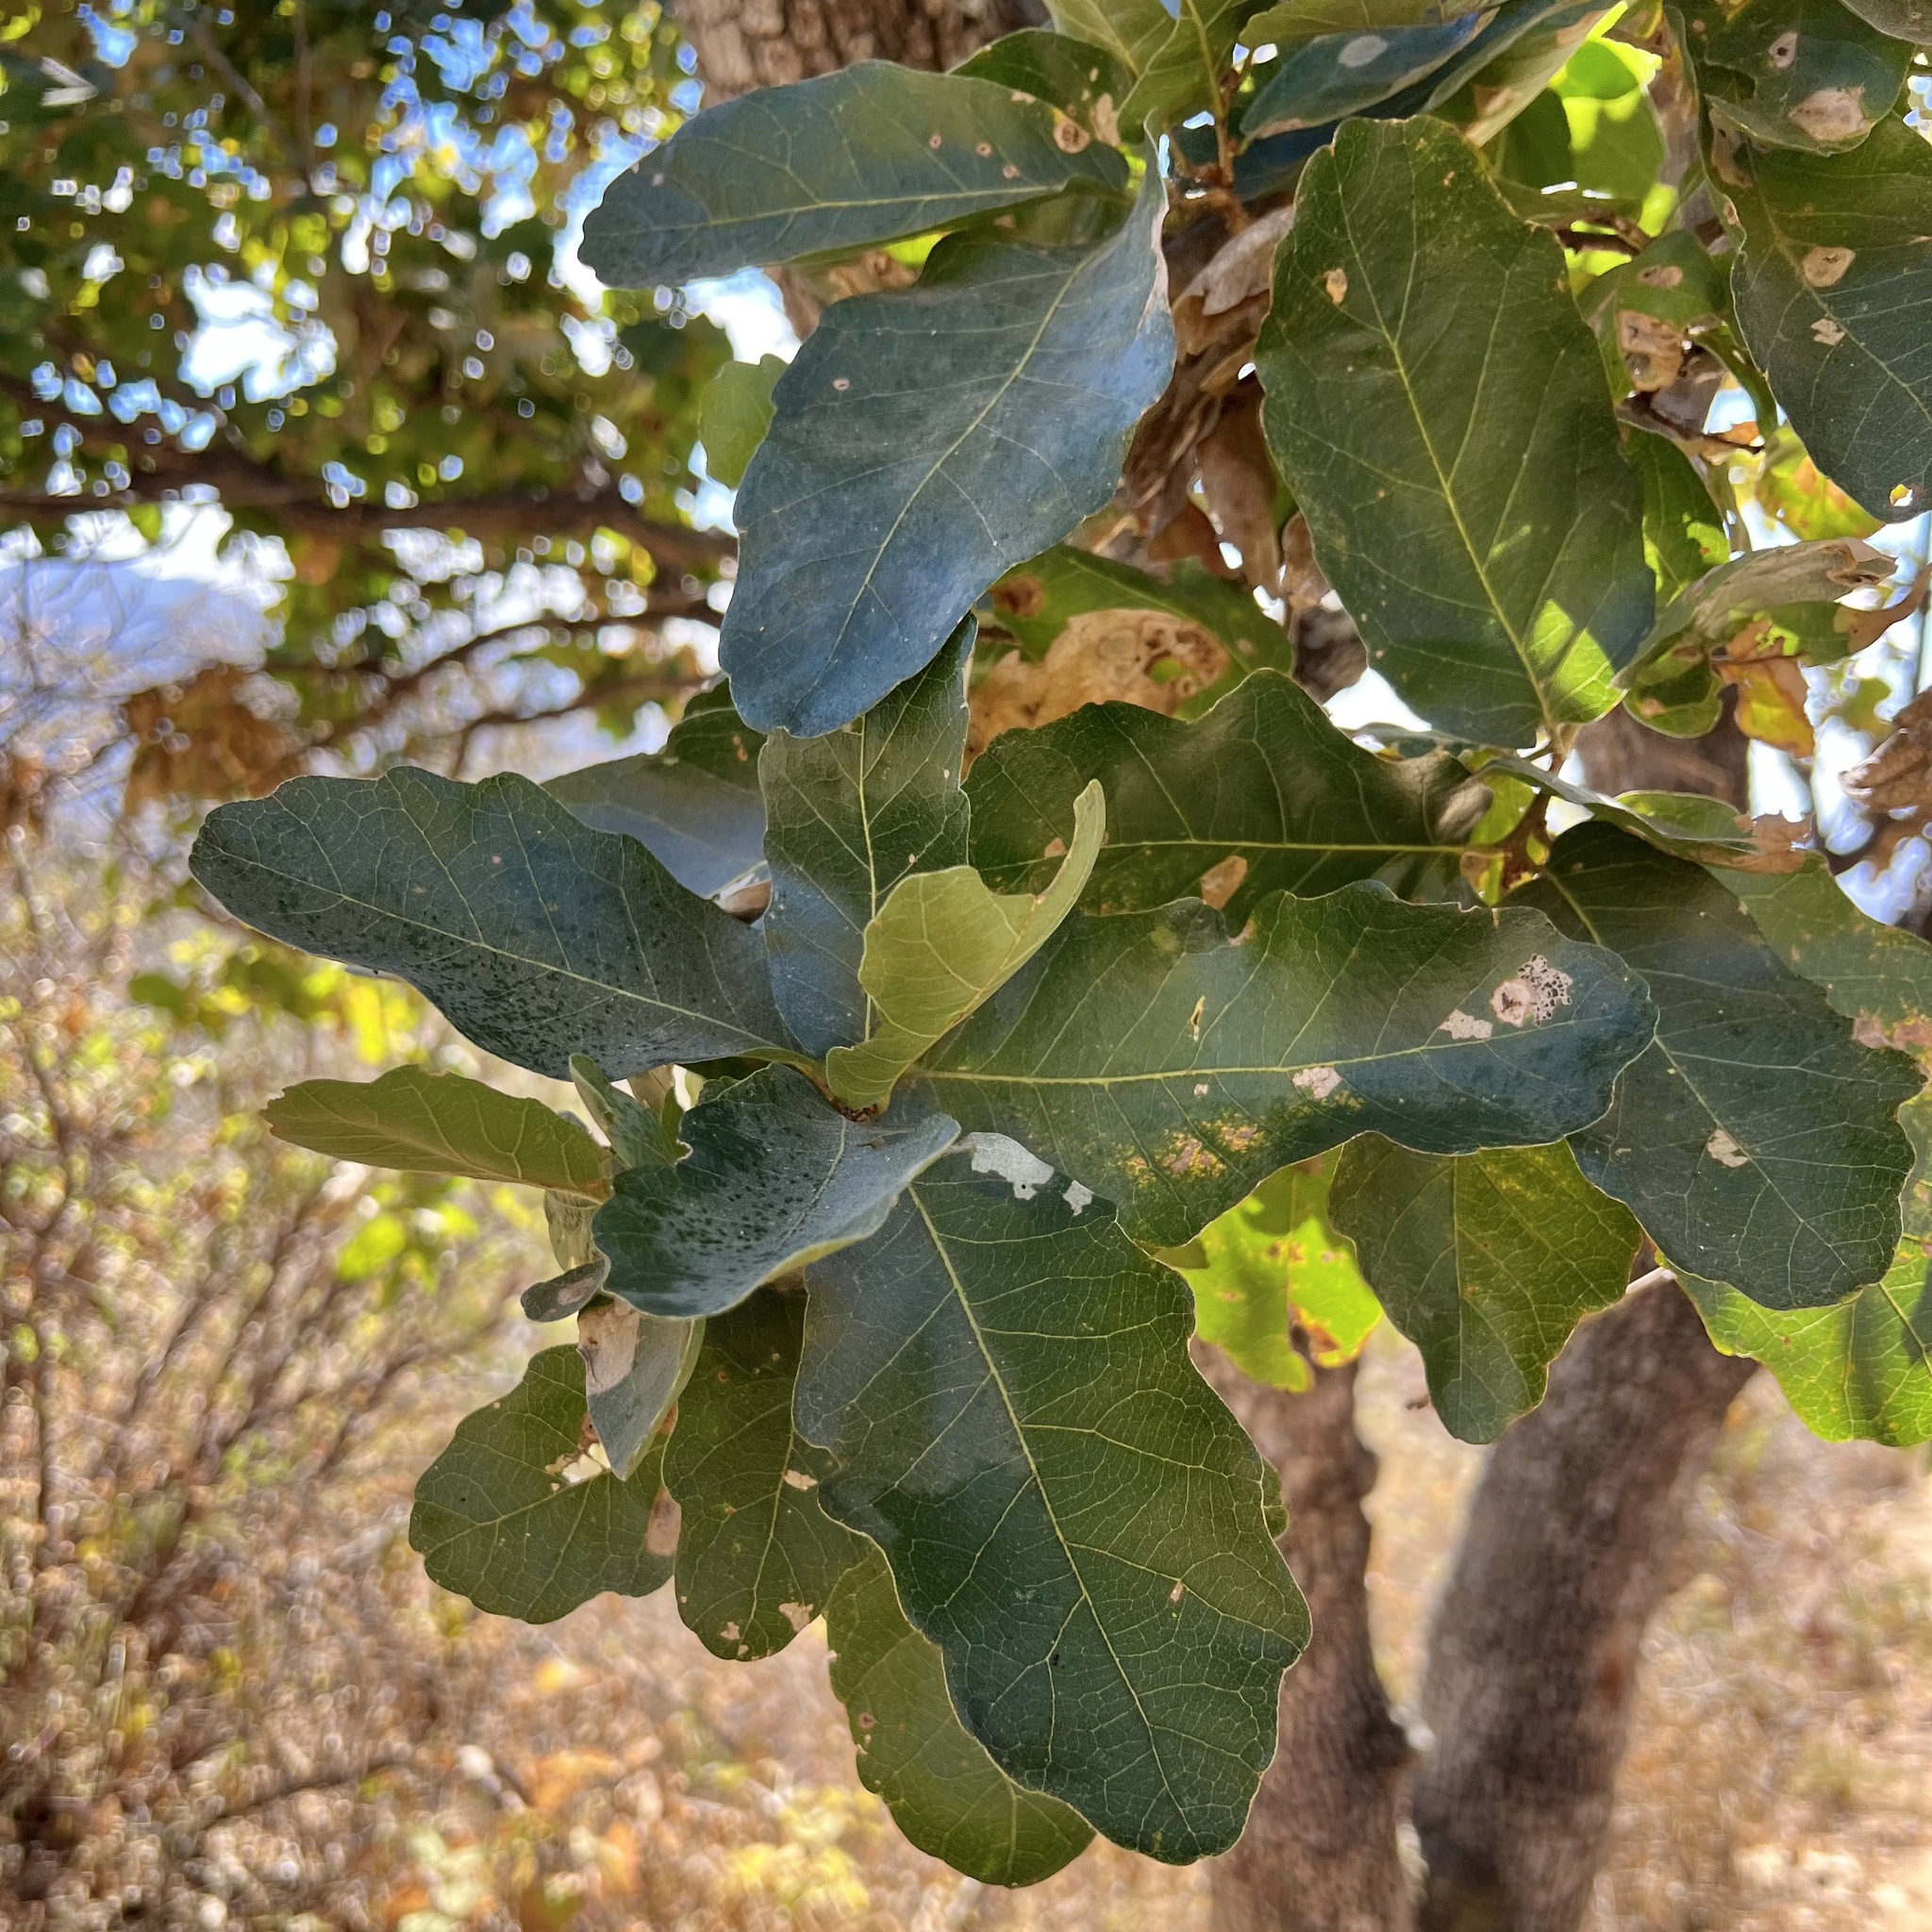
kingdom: Plantae
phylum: Tracheophyta
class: Magnoliopsida
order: Fagales
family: Fagaceae
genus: Quercus
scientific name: Quercus tuberculata
